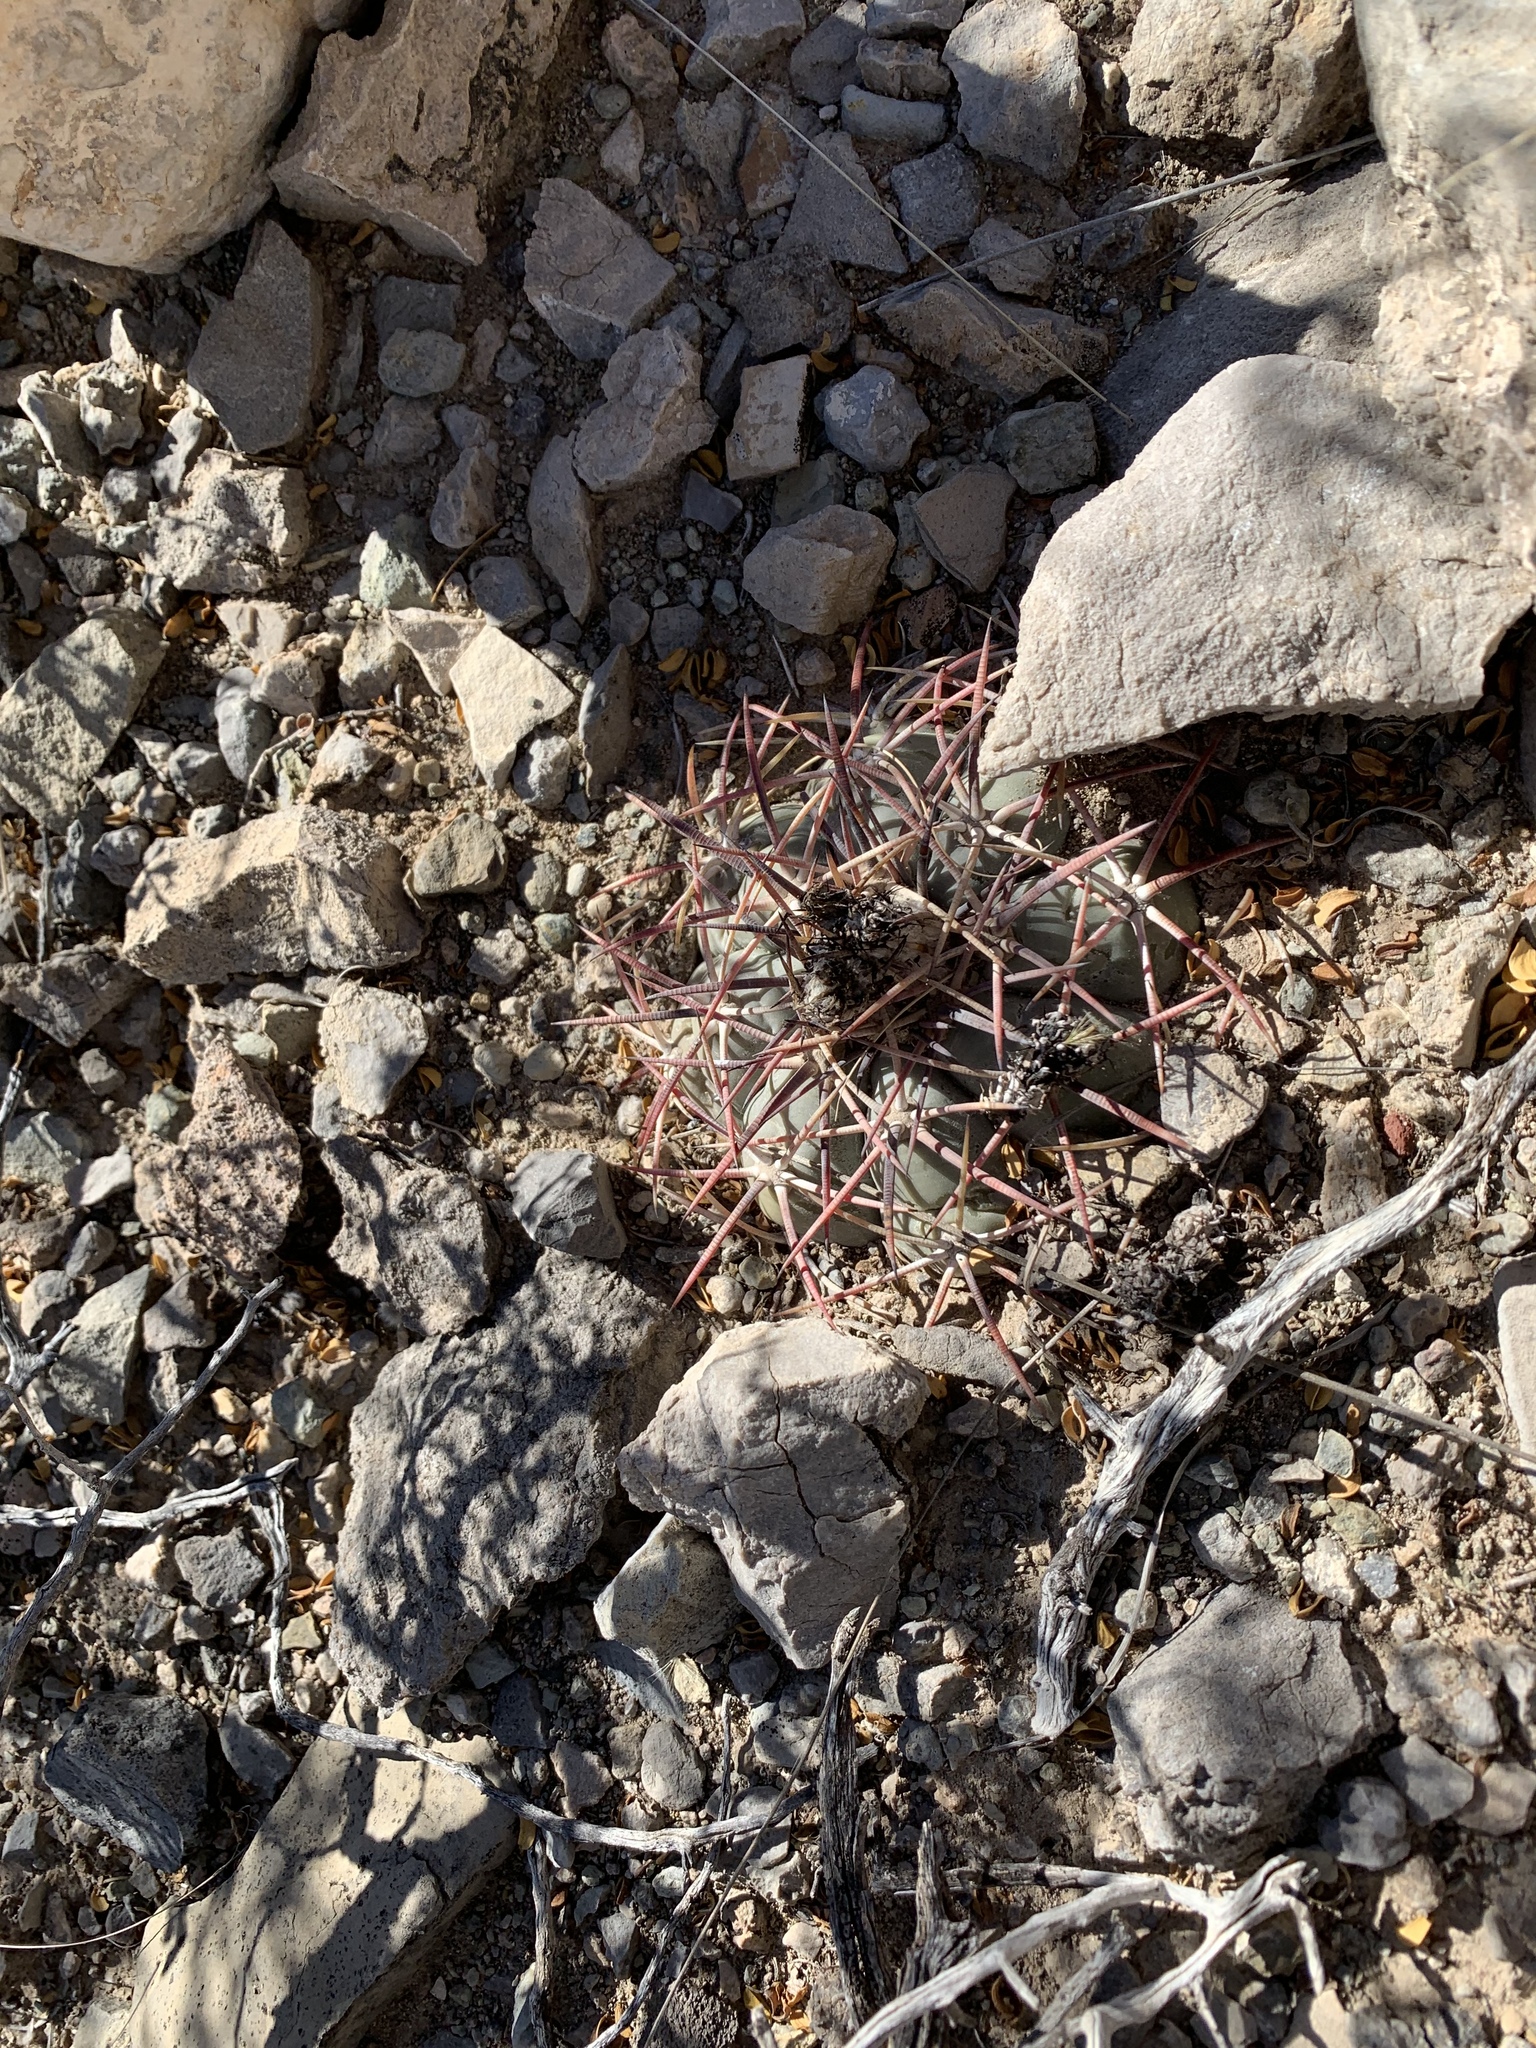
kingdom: Plantae
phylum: Tracheophyta
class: Magnoliopsida
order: Caryophyllales
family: Cactaceae
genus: Echinocactus
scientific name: Echinocactus horizonthalonius
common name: Devilshead
